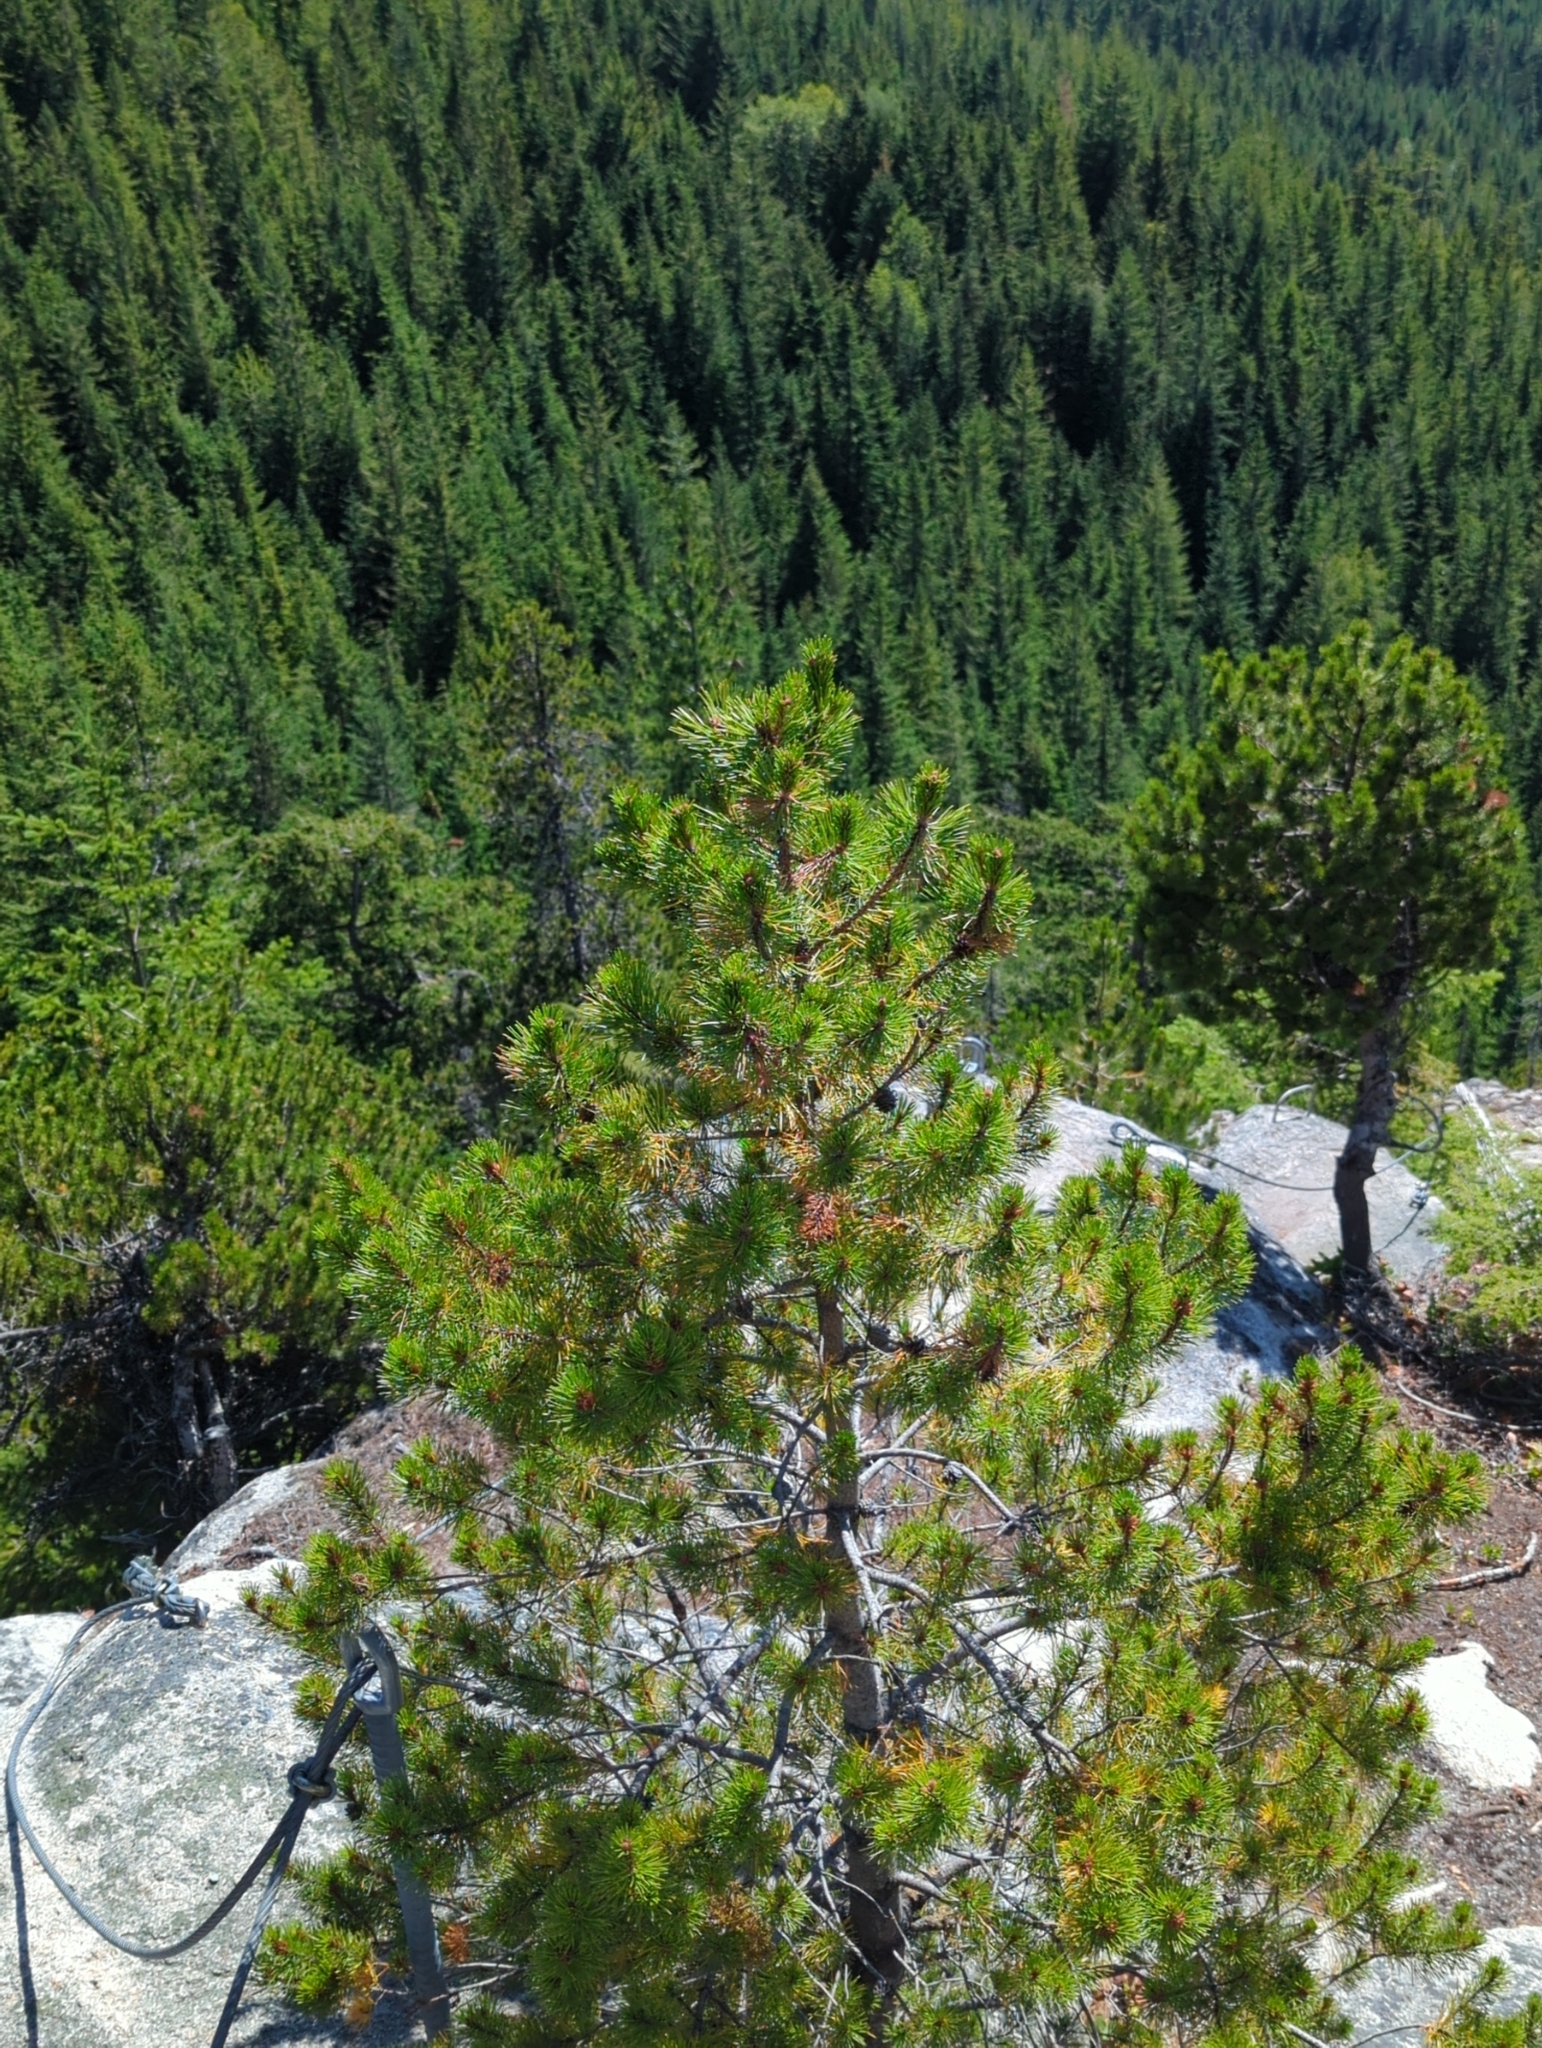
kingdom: Plantae
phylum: Tracheophyta
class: Pinopsida
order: Pinales
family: Pinaceae
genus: Pinus
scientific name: Pinus contorta
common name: Lodgepole pine
